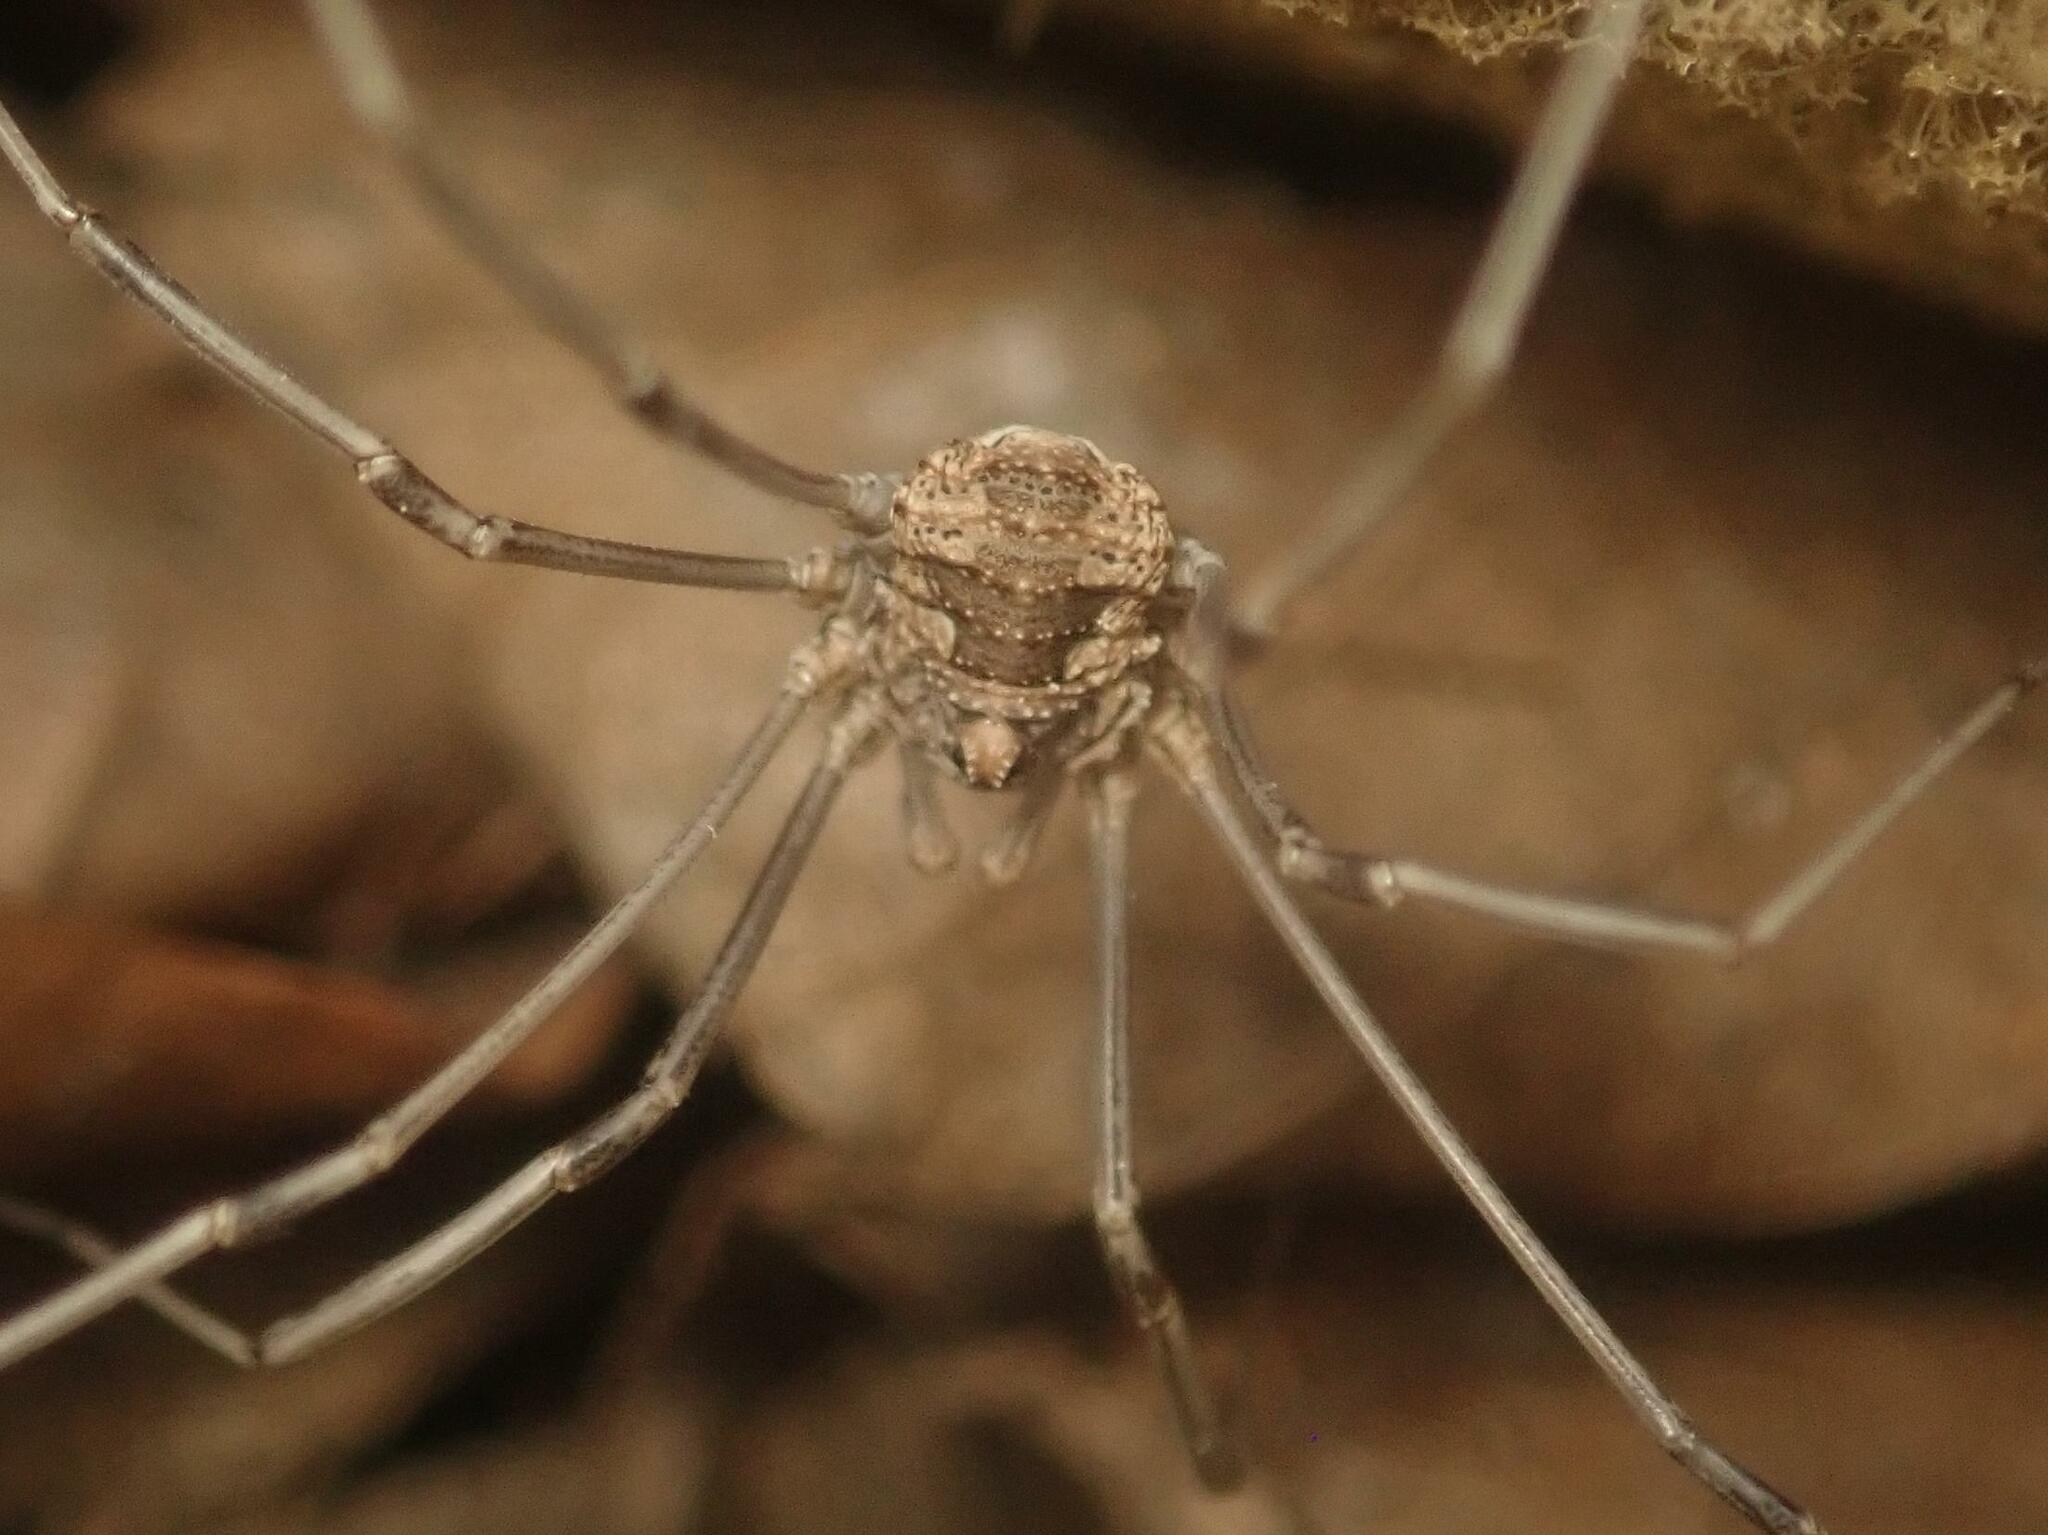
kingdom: Animalia
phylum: Arthropoda
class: Arachnida
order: Opiliones
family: Phalangiidae
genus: Phalangium
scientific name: Phalangium opilio
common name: Daddy longleg
